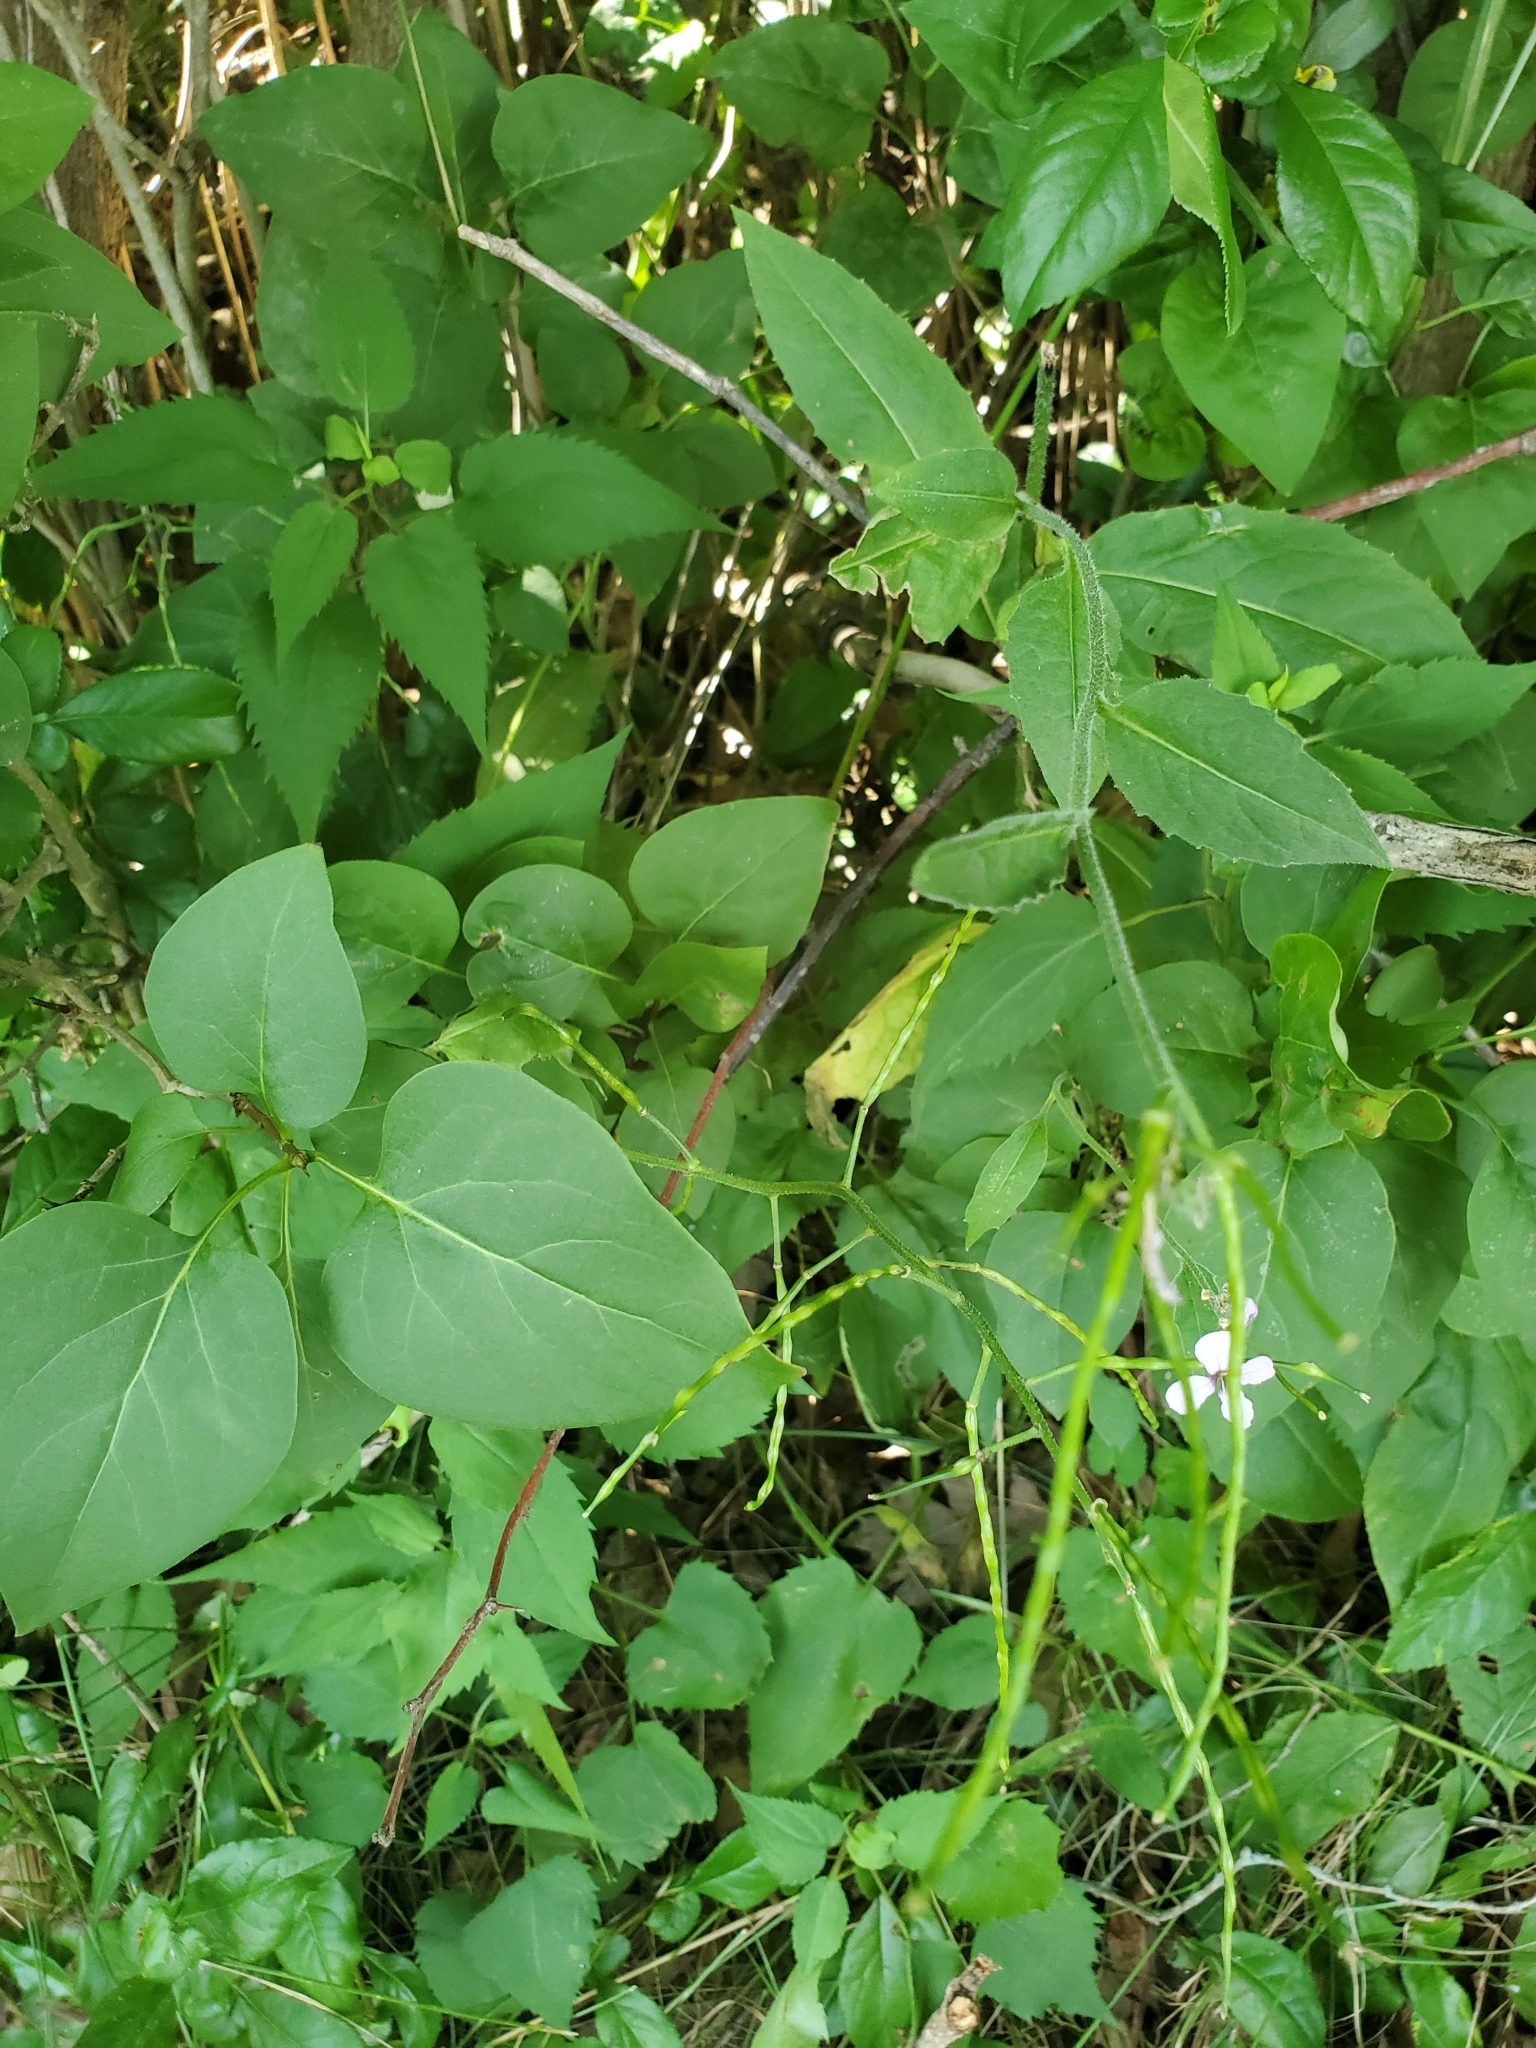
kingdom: Plantae
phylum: Tracheophyta
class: Magnoliopsida
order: Brassicales
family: Brassicaceae
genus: Hesperis
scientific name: Hesperis matronalis
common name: Dame's-violet
